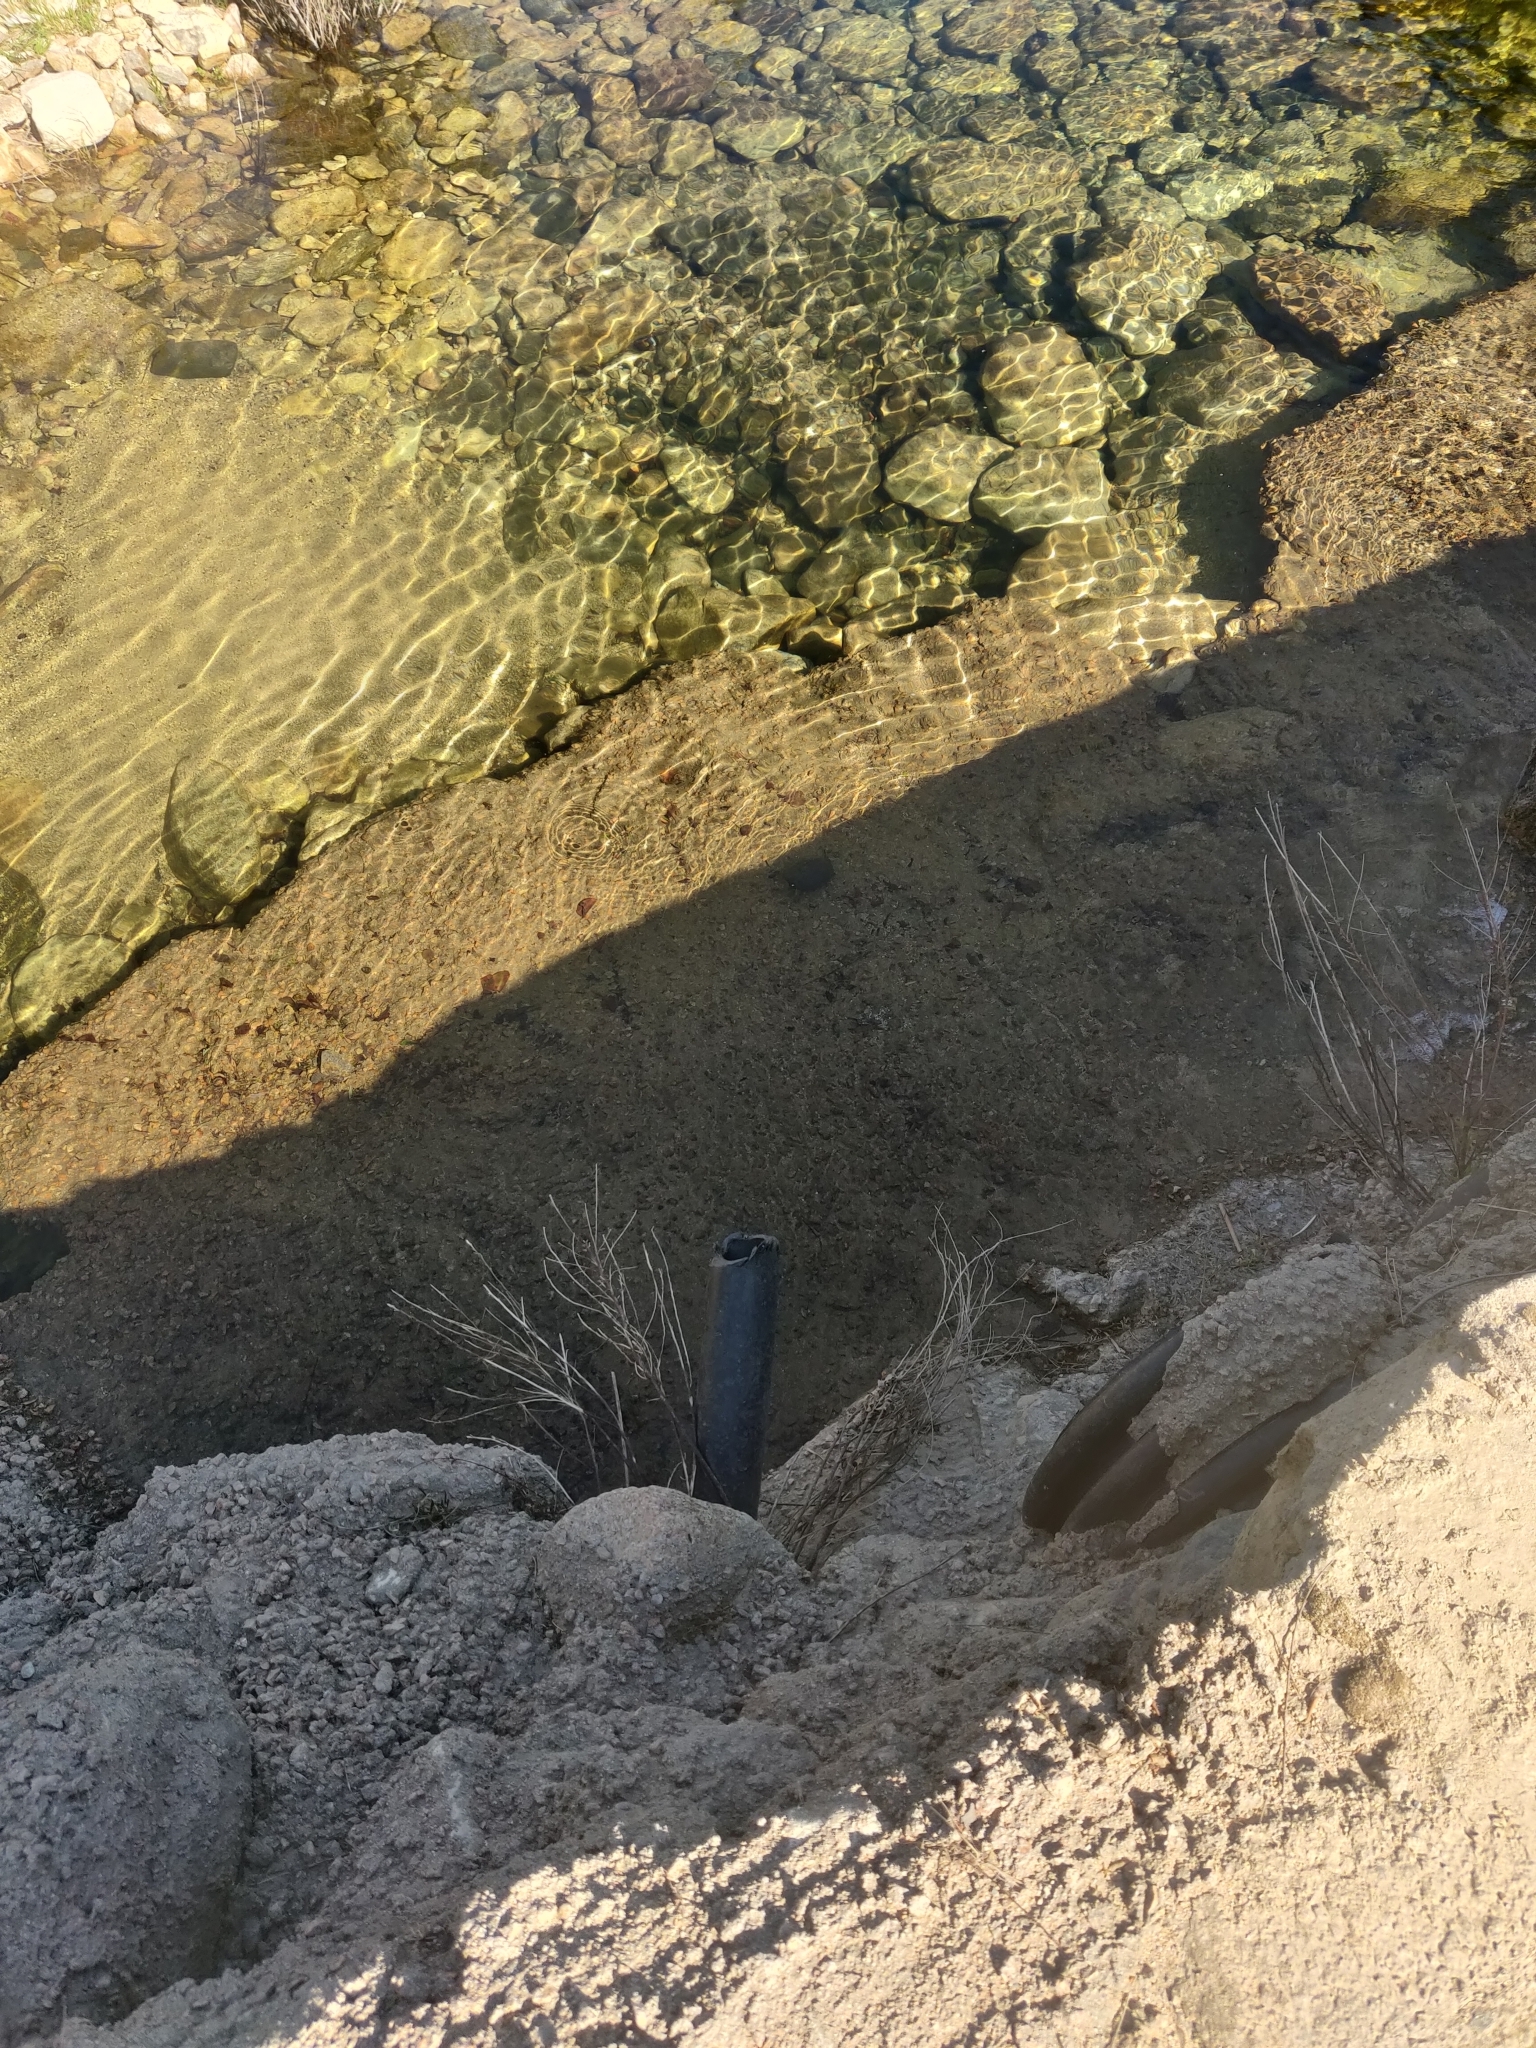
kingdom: Animalia
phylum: Chordata
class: Testudines
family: Emydidae
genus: Emys
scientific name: Emys orbicularis
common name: European pond turtle
